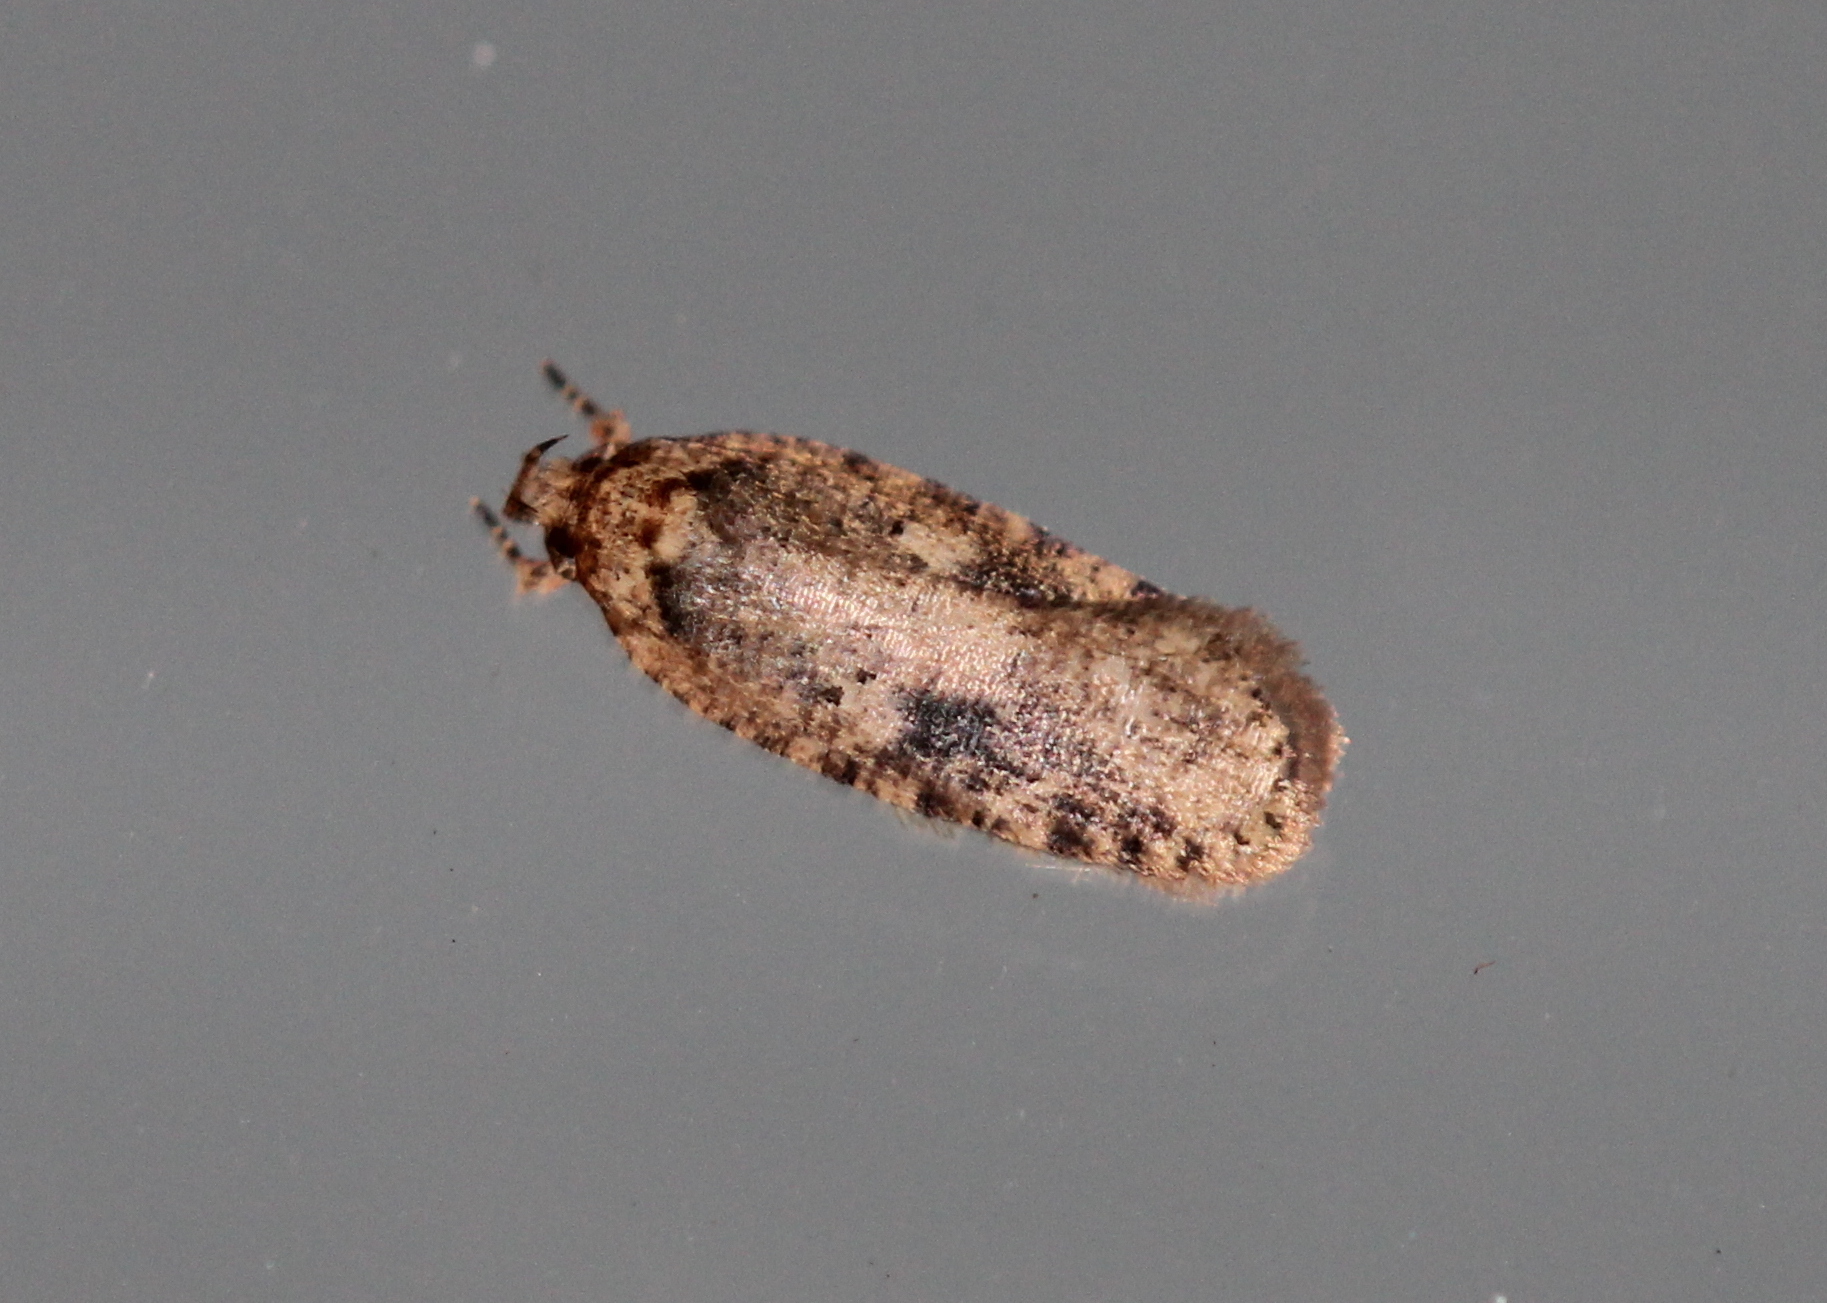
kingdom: Animalia
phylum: Arthropoda
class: Insecta
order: Lepidoptera
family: Depressariidae
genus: Agonopterix
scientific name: Agonopterix pulvipennella
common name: Goldenrod leafffolder
